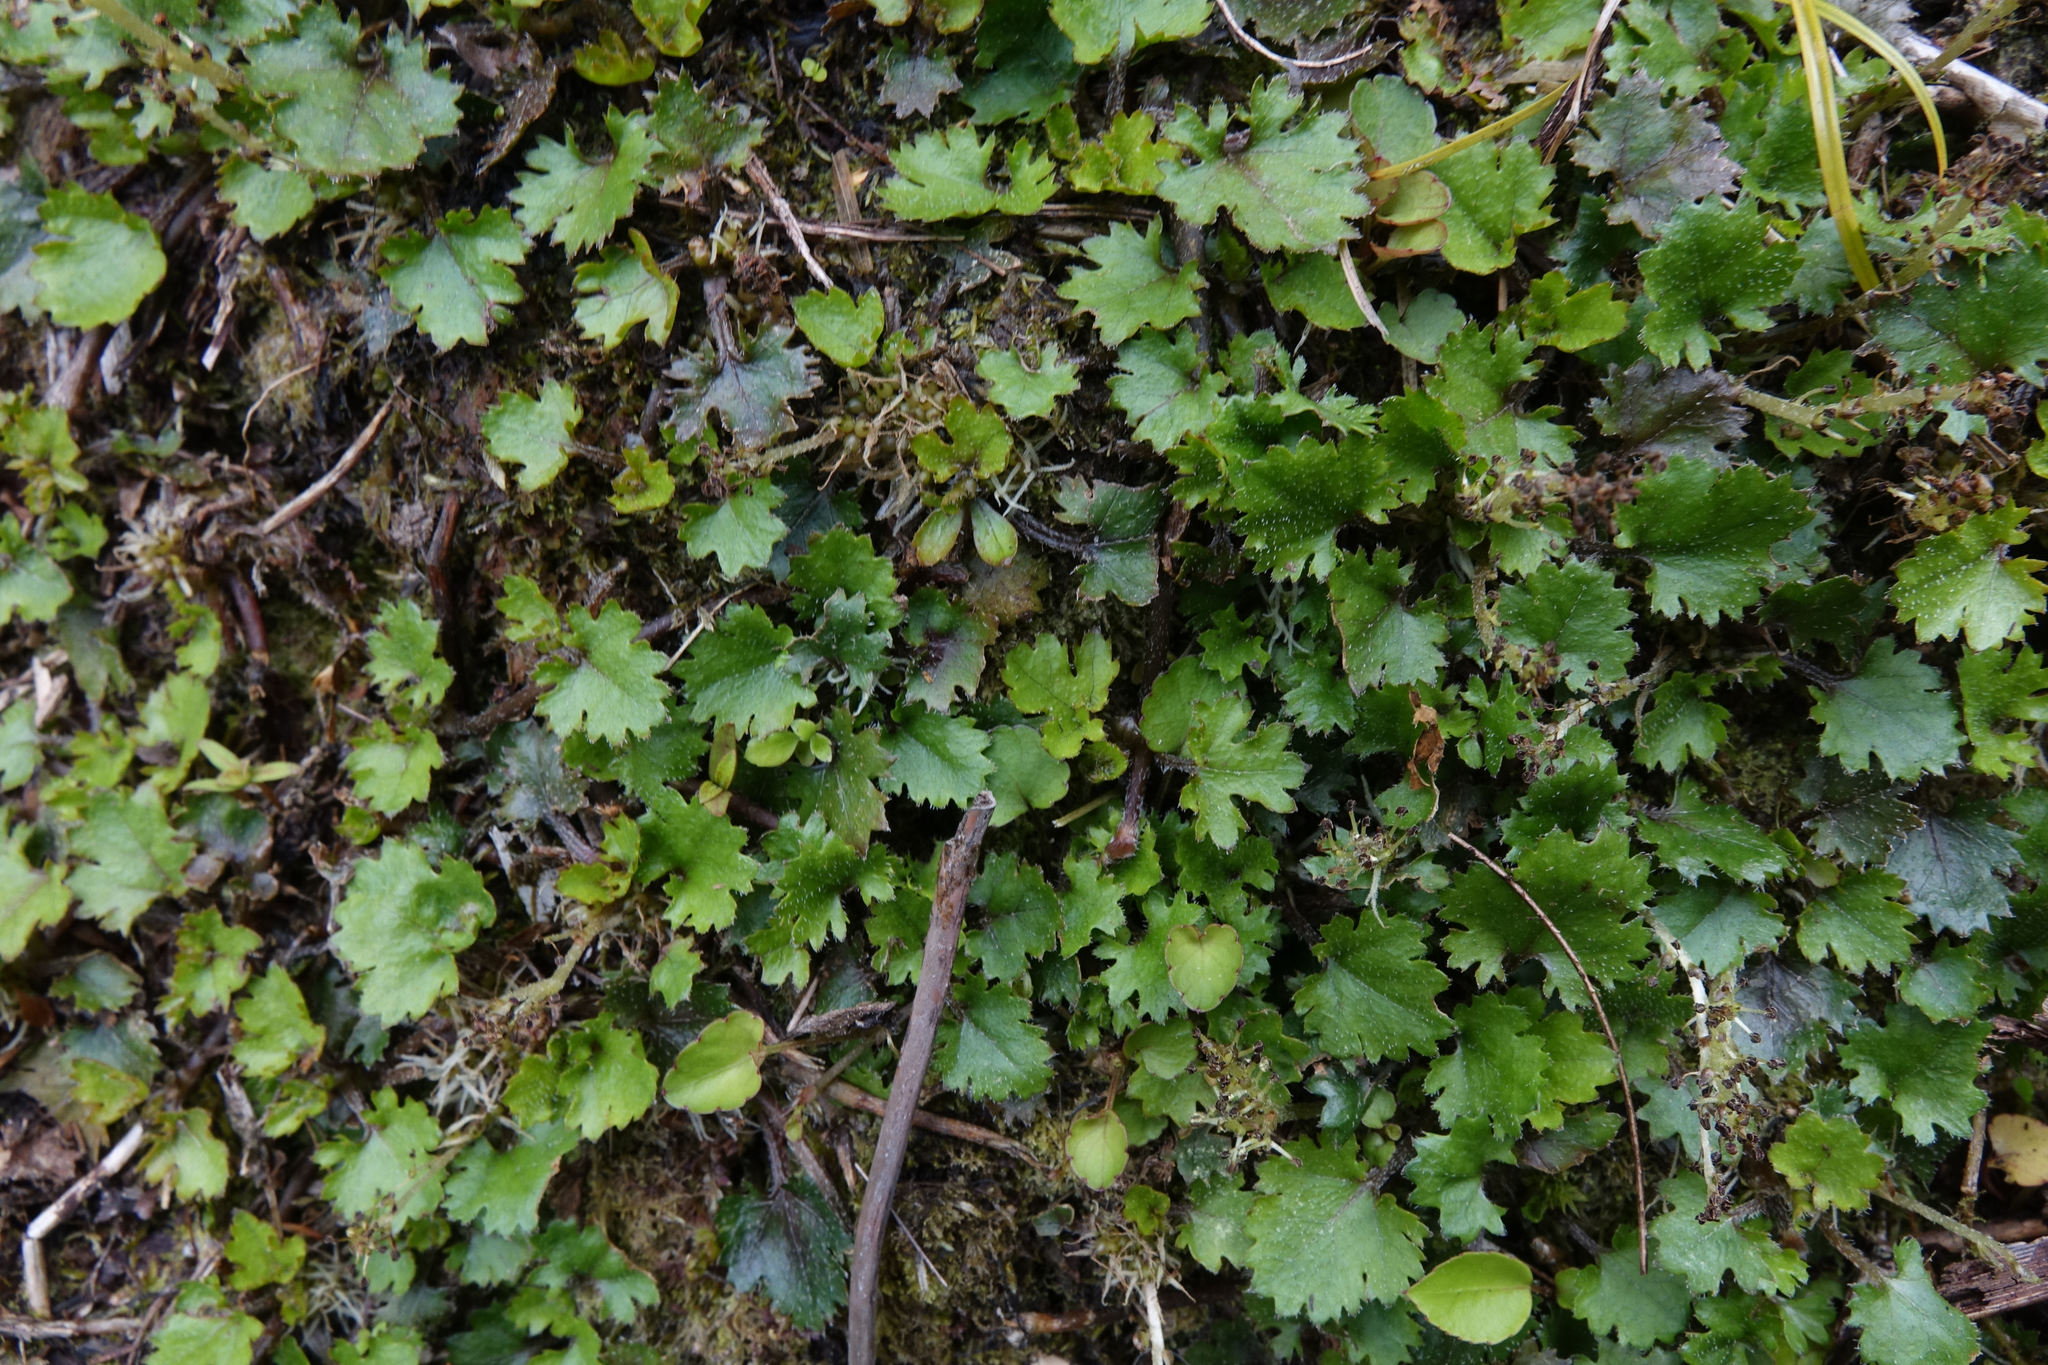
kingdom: Plantae
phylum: Tracheophyta
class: Magnoliopsida
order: Gunnerales
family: Gunneraceae
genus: Gunnera
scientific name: Gunnera monoica
